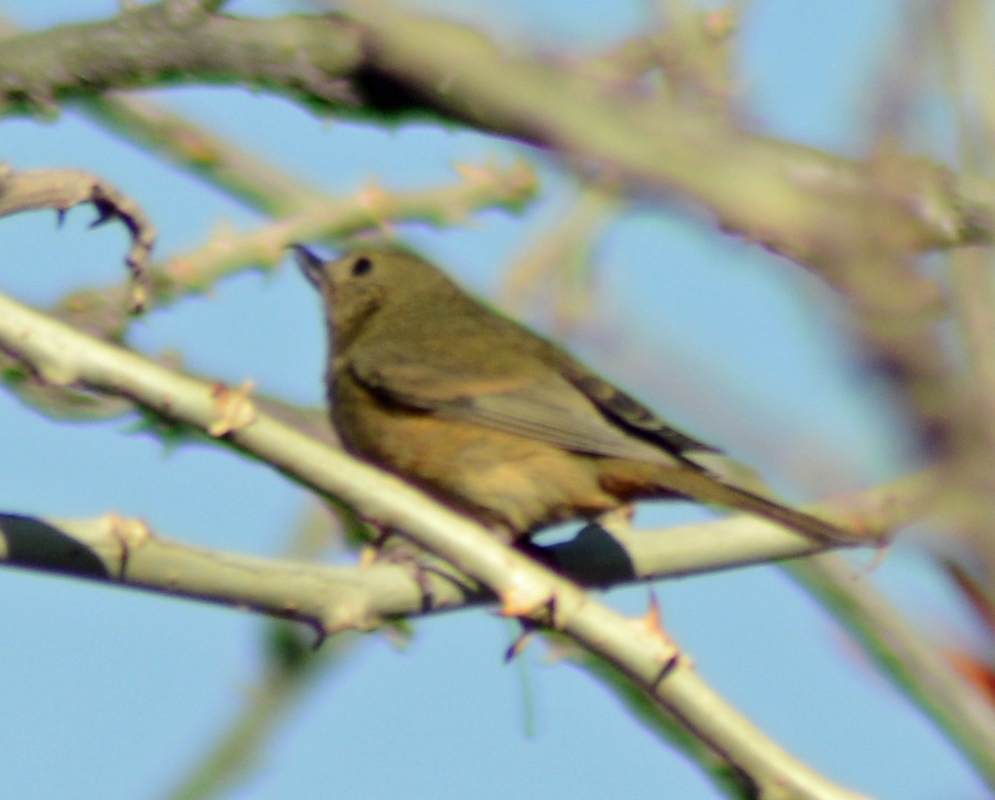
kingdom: Animalia
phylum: Chordata
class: Aves
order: Passeriformes
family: Thraupidae
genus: Diglossa
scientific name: Diglossa baritula
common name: Cinnamon-bellied flowerpiercer
